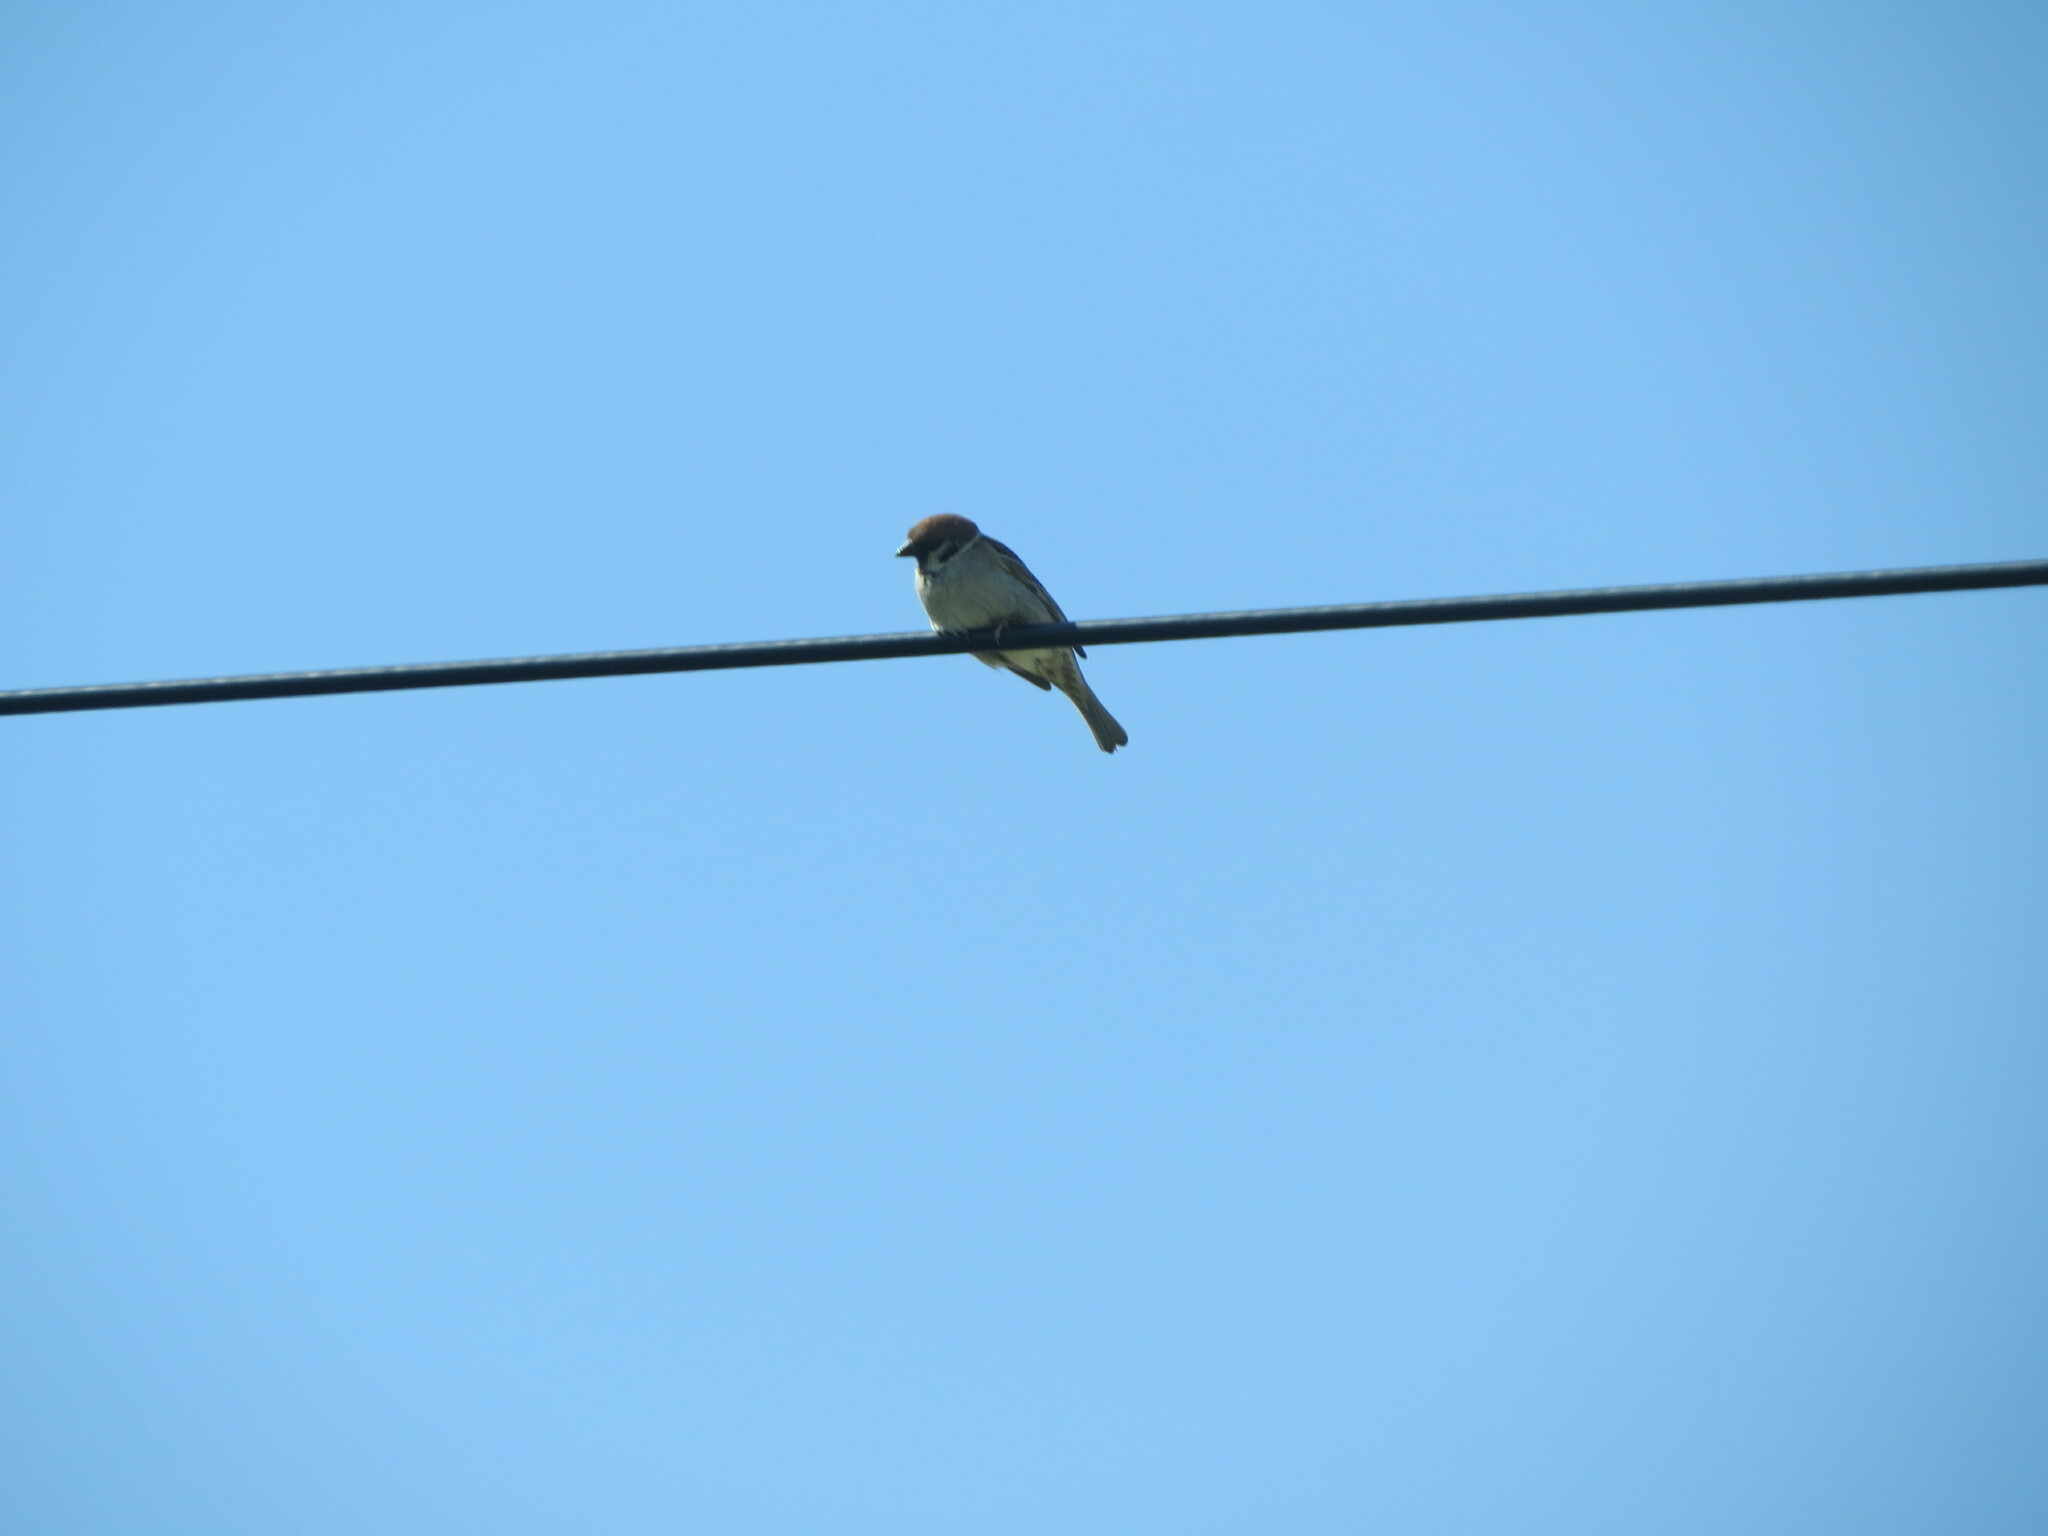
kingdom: Animalia
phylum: Chordata
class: Aves
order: Passeriformes
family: Passeridae
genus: Passer
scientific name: Passer montanus
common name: Eurasian tree sparrow
